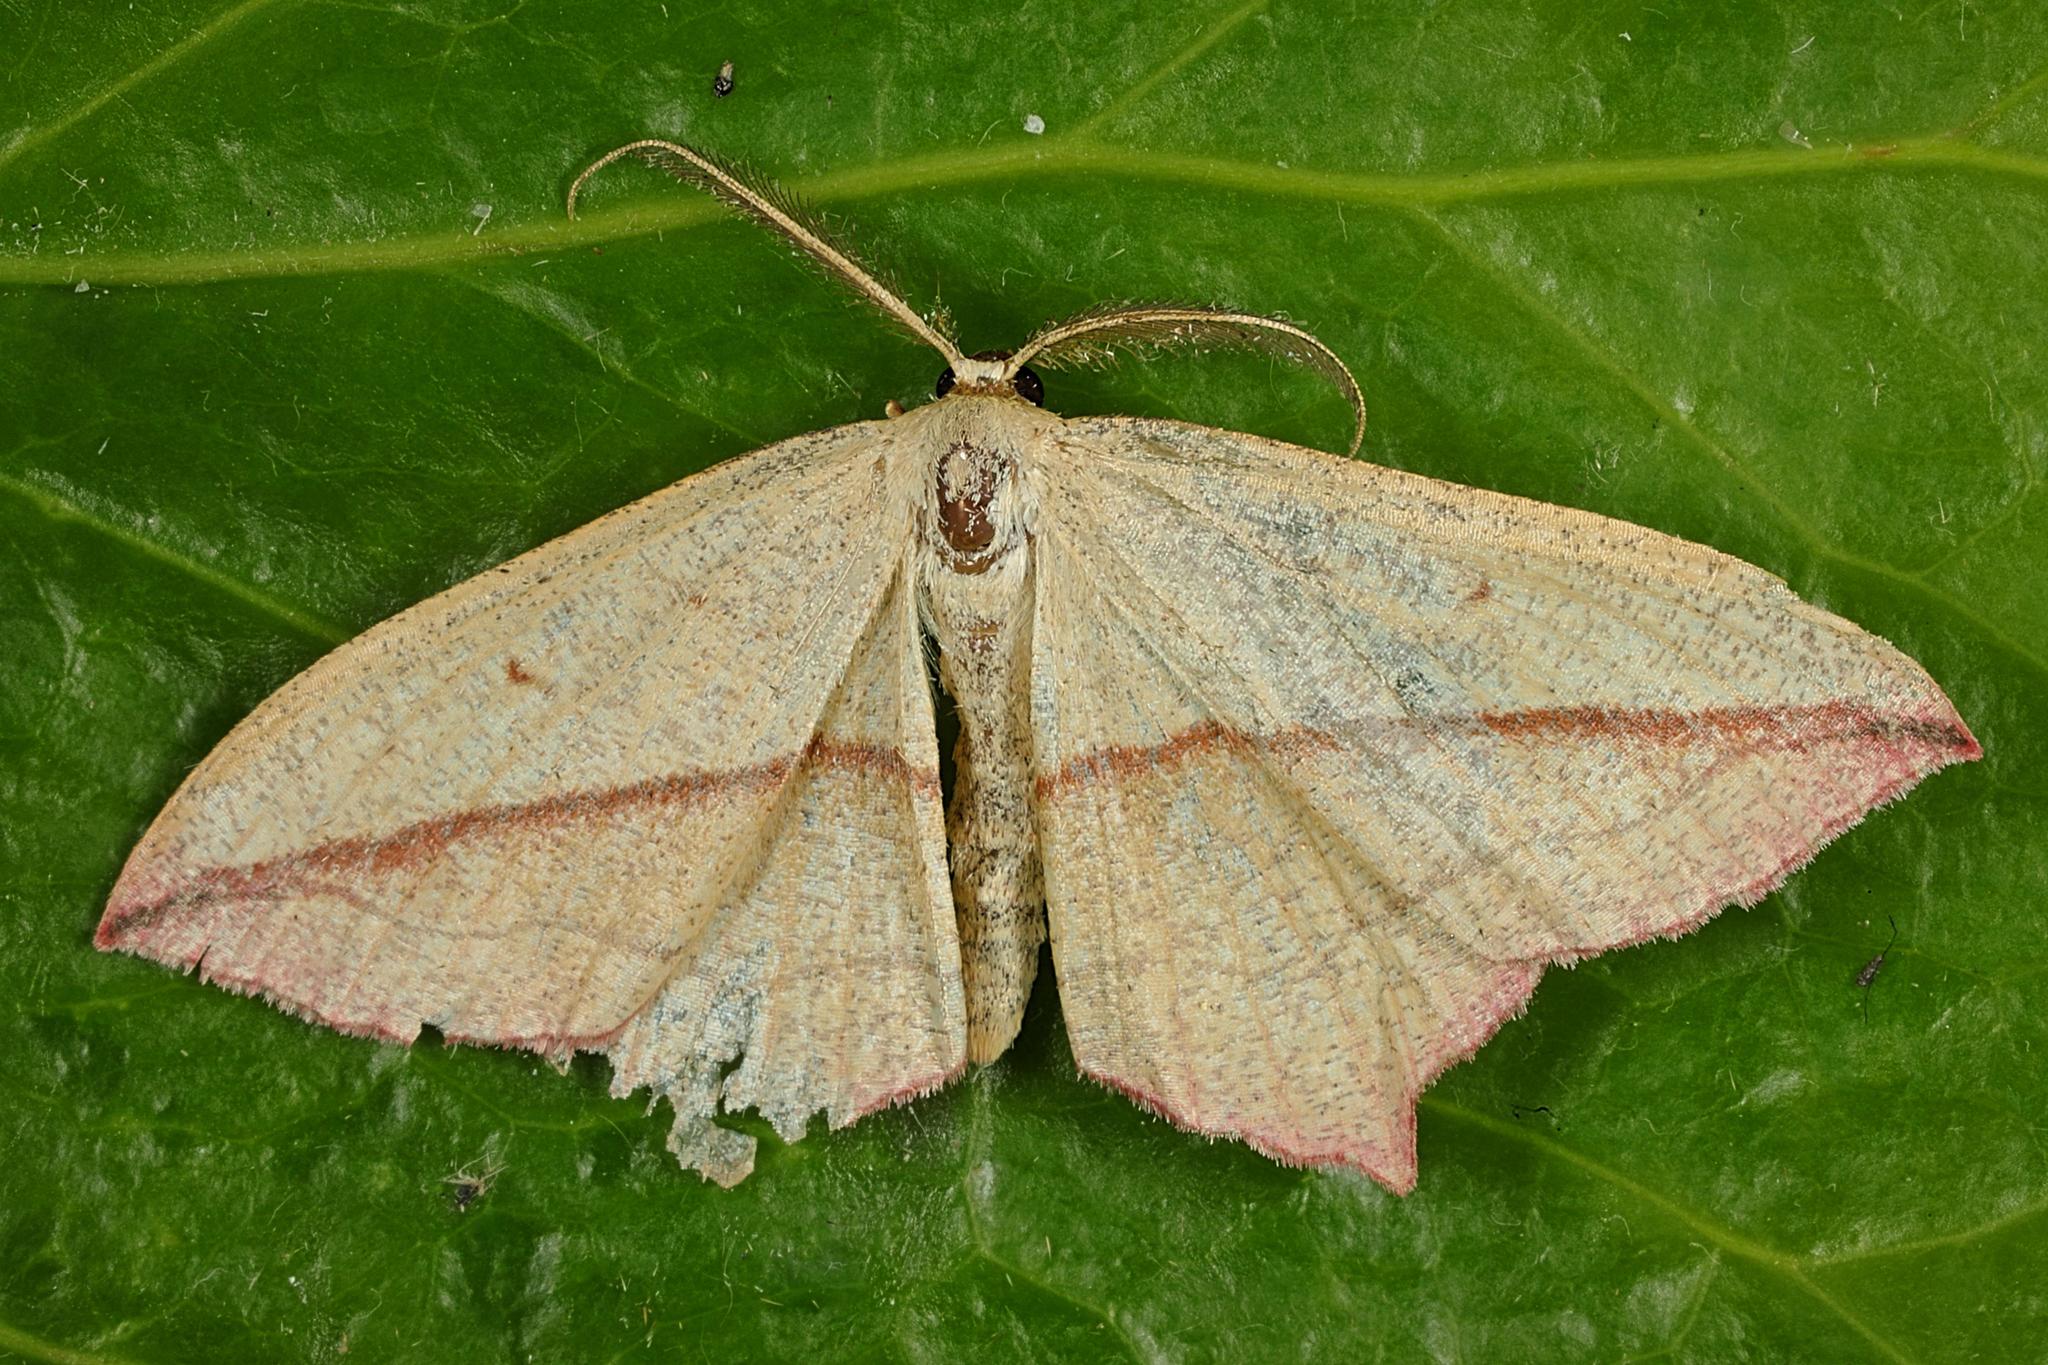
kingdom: Animalia
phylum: Arthropoda
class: Insecta
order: Lepidoptera
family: Geometridae
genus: Timandra
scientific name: Timandra comae
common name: Blood-vein
